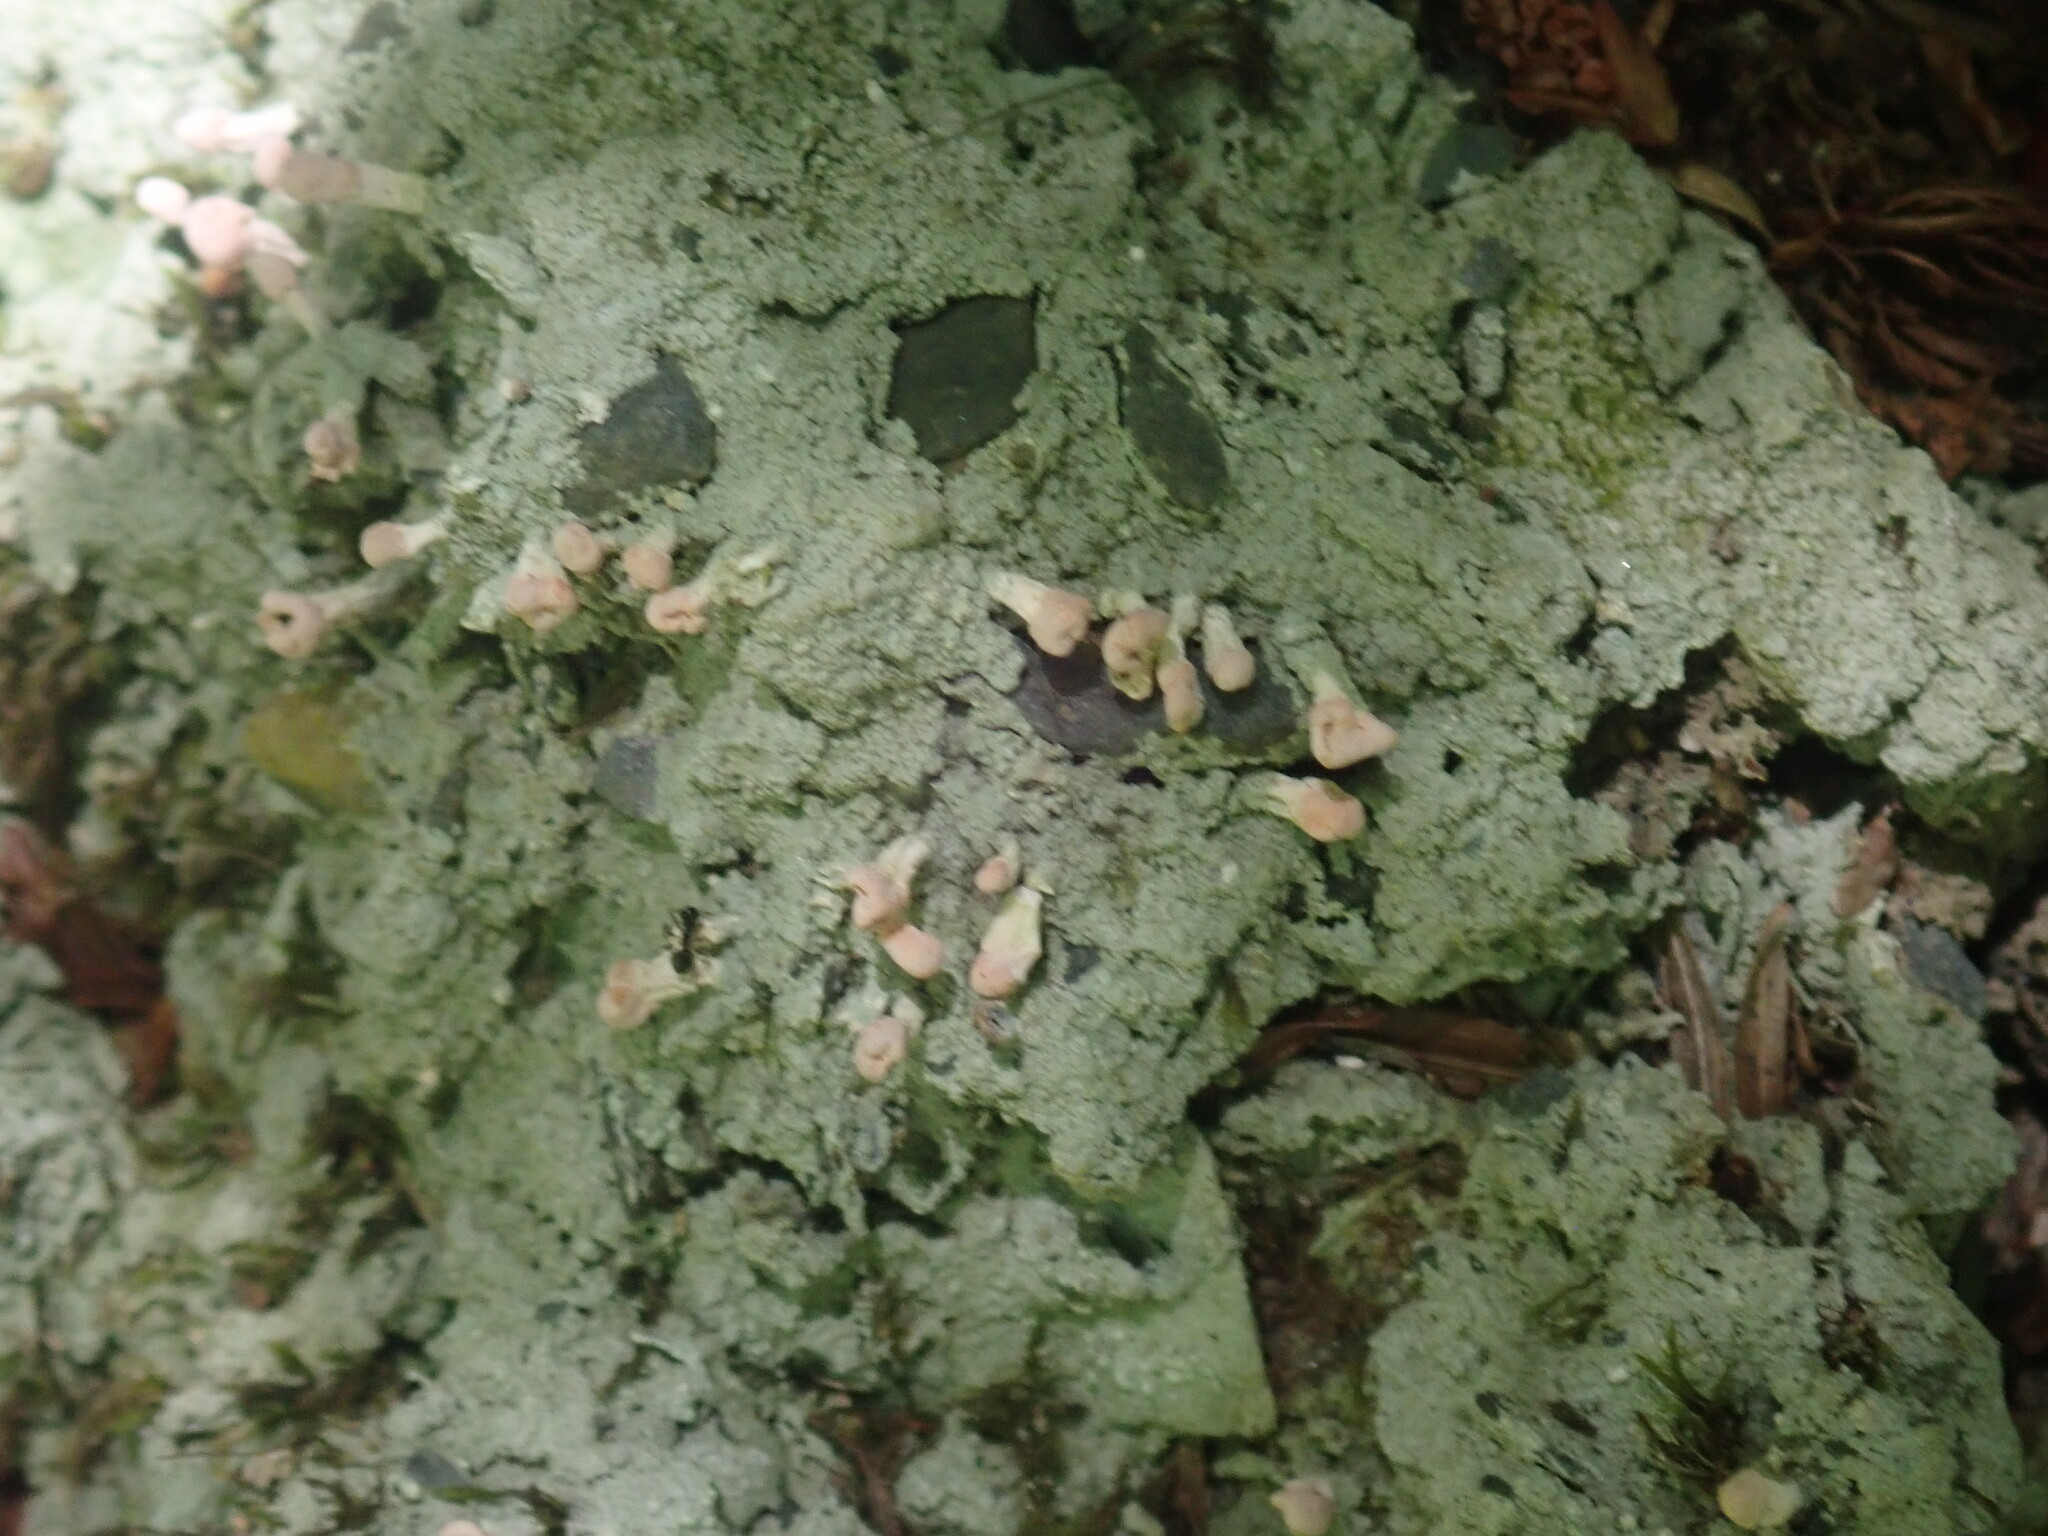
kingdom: Fungi
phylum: Ascomycota
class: Lecanoromycetes
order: Pertusariales
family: Icmadophilaceae
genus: Dibaeis
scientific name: Dibaeis baeomyces
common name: Pink earth lichen
